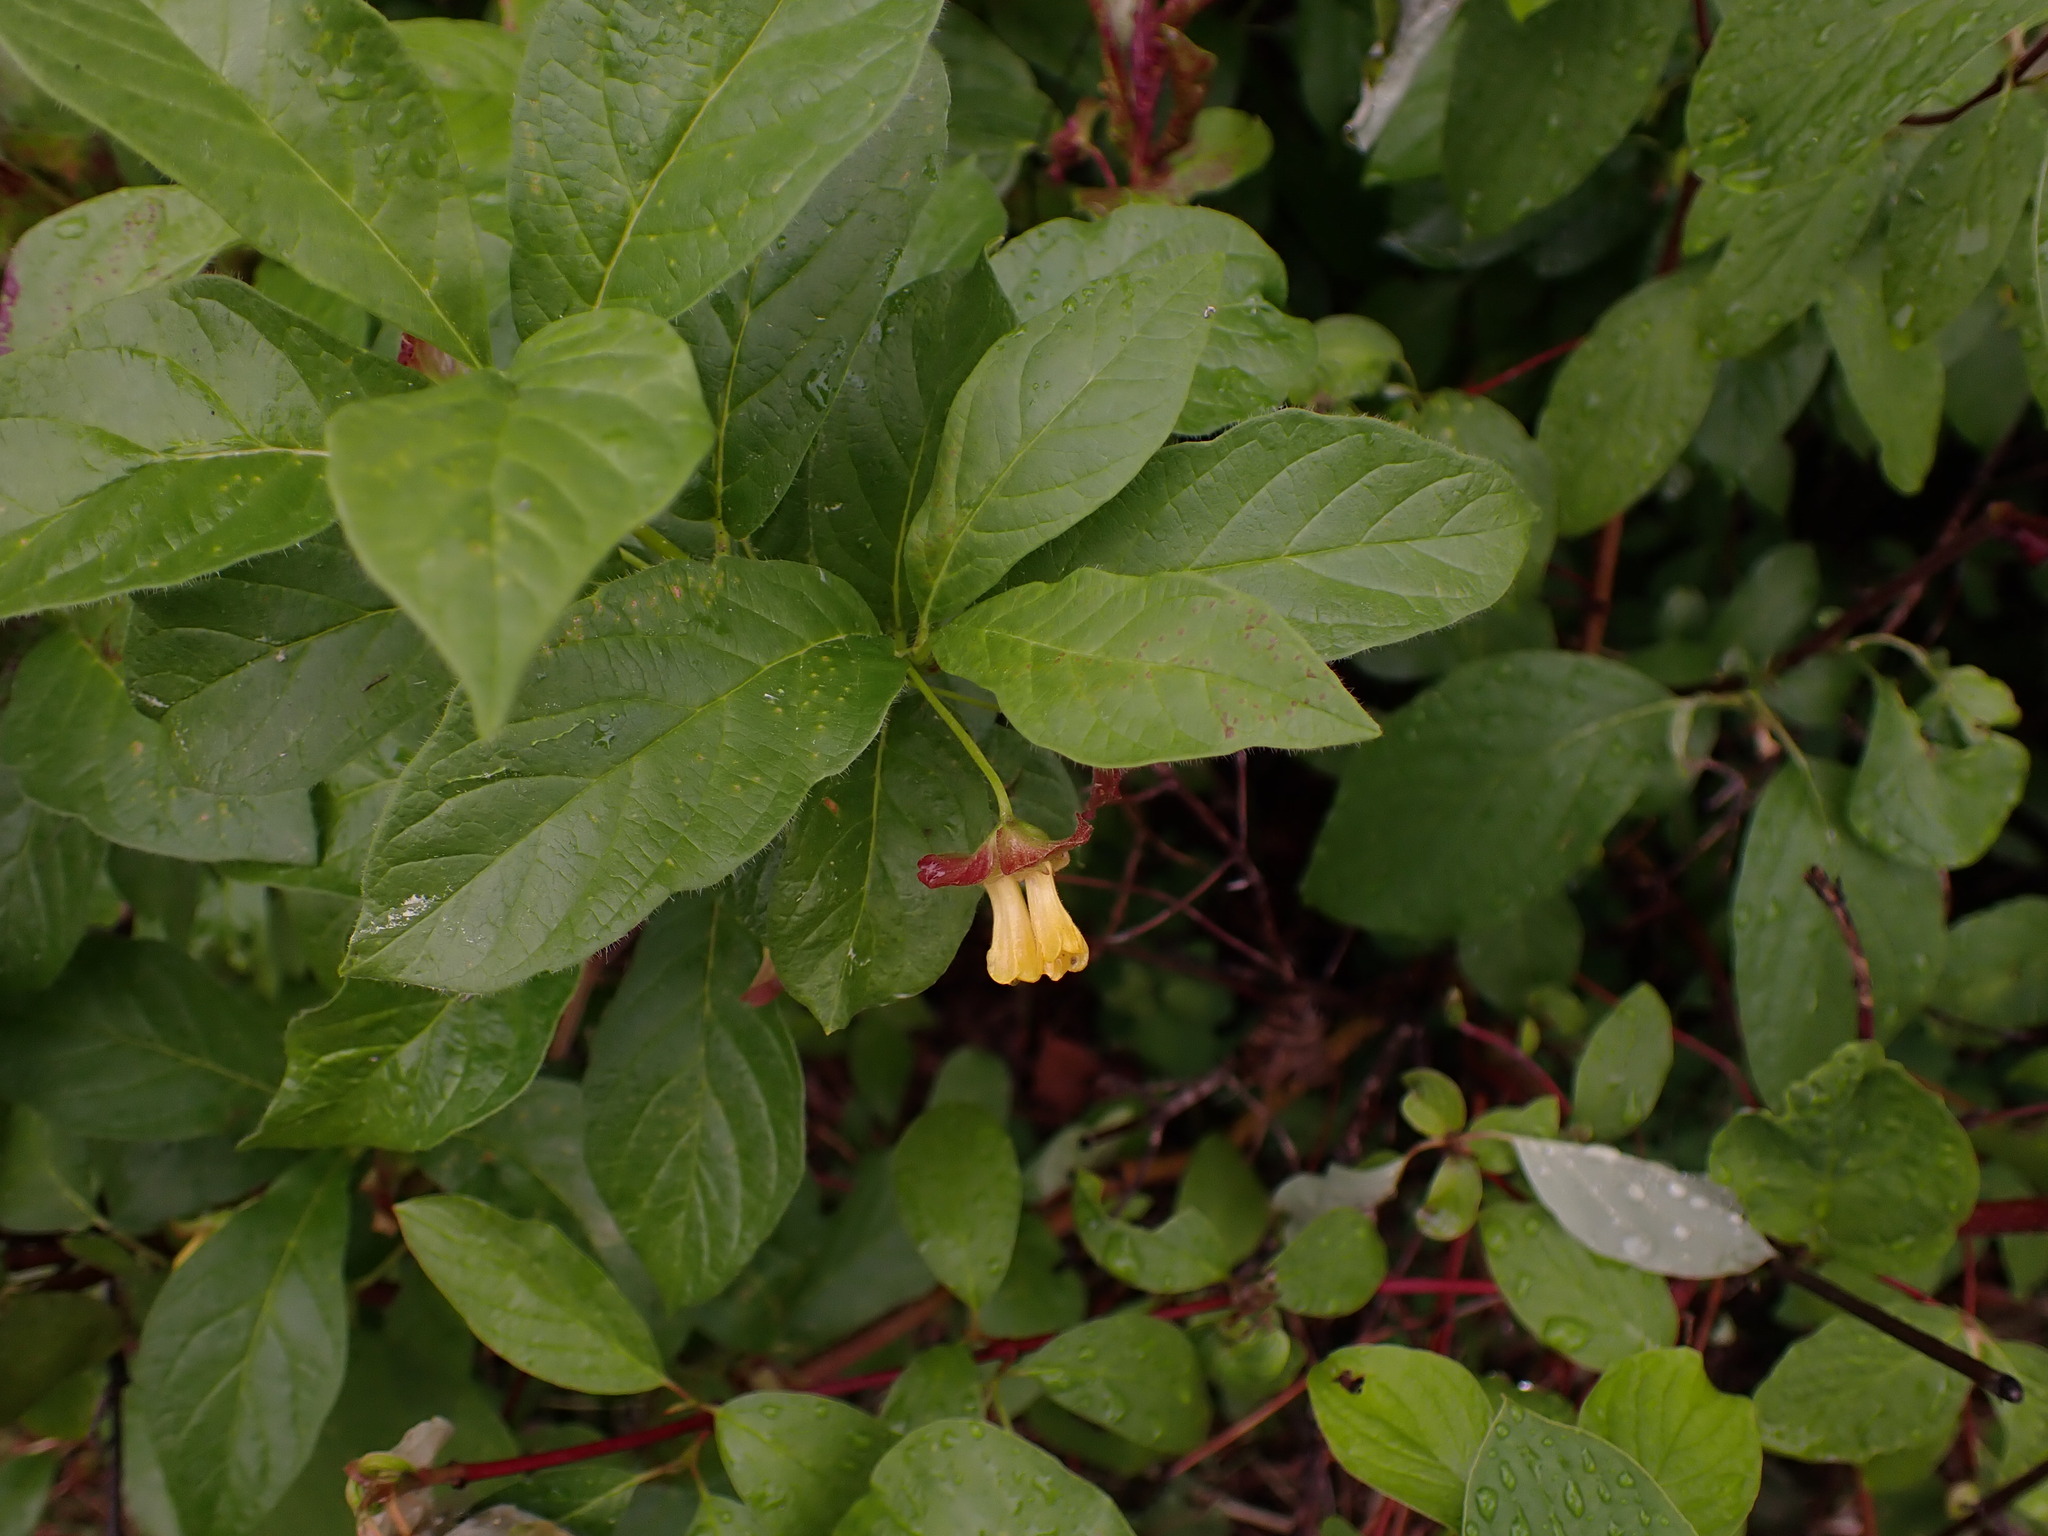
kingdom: Plantae
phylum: Tracheophyta
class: Magnoliopsida
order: Dipsacales
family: Caprifoliaceae
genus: Lonicera
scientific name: Lonicera involucrata
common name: Californian honeysuckle
